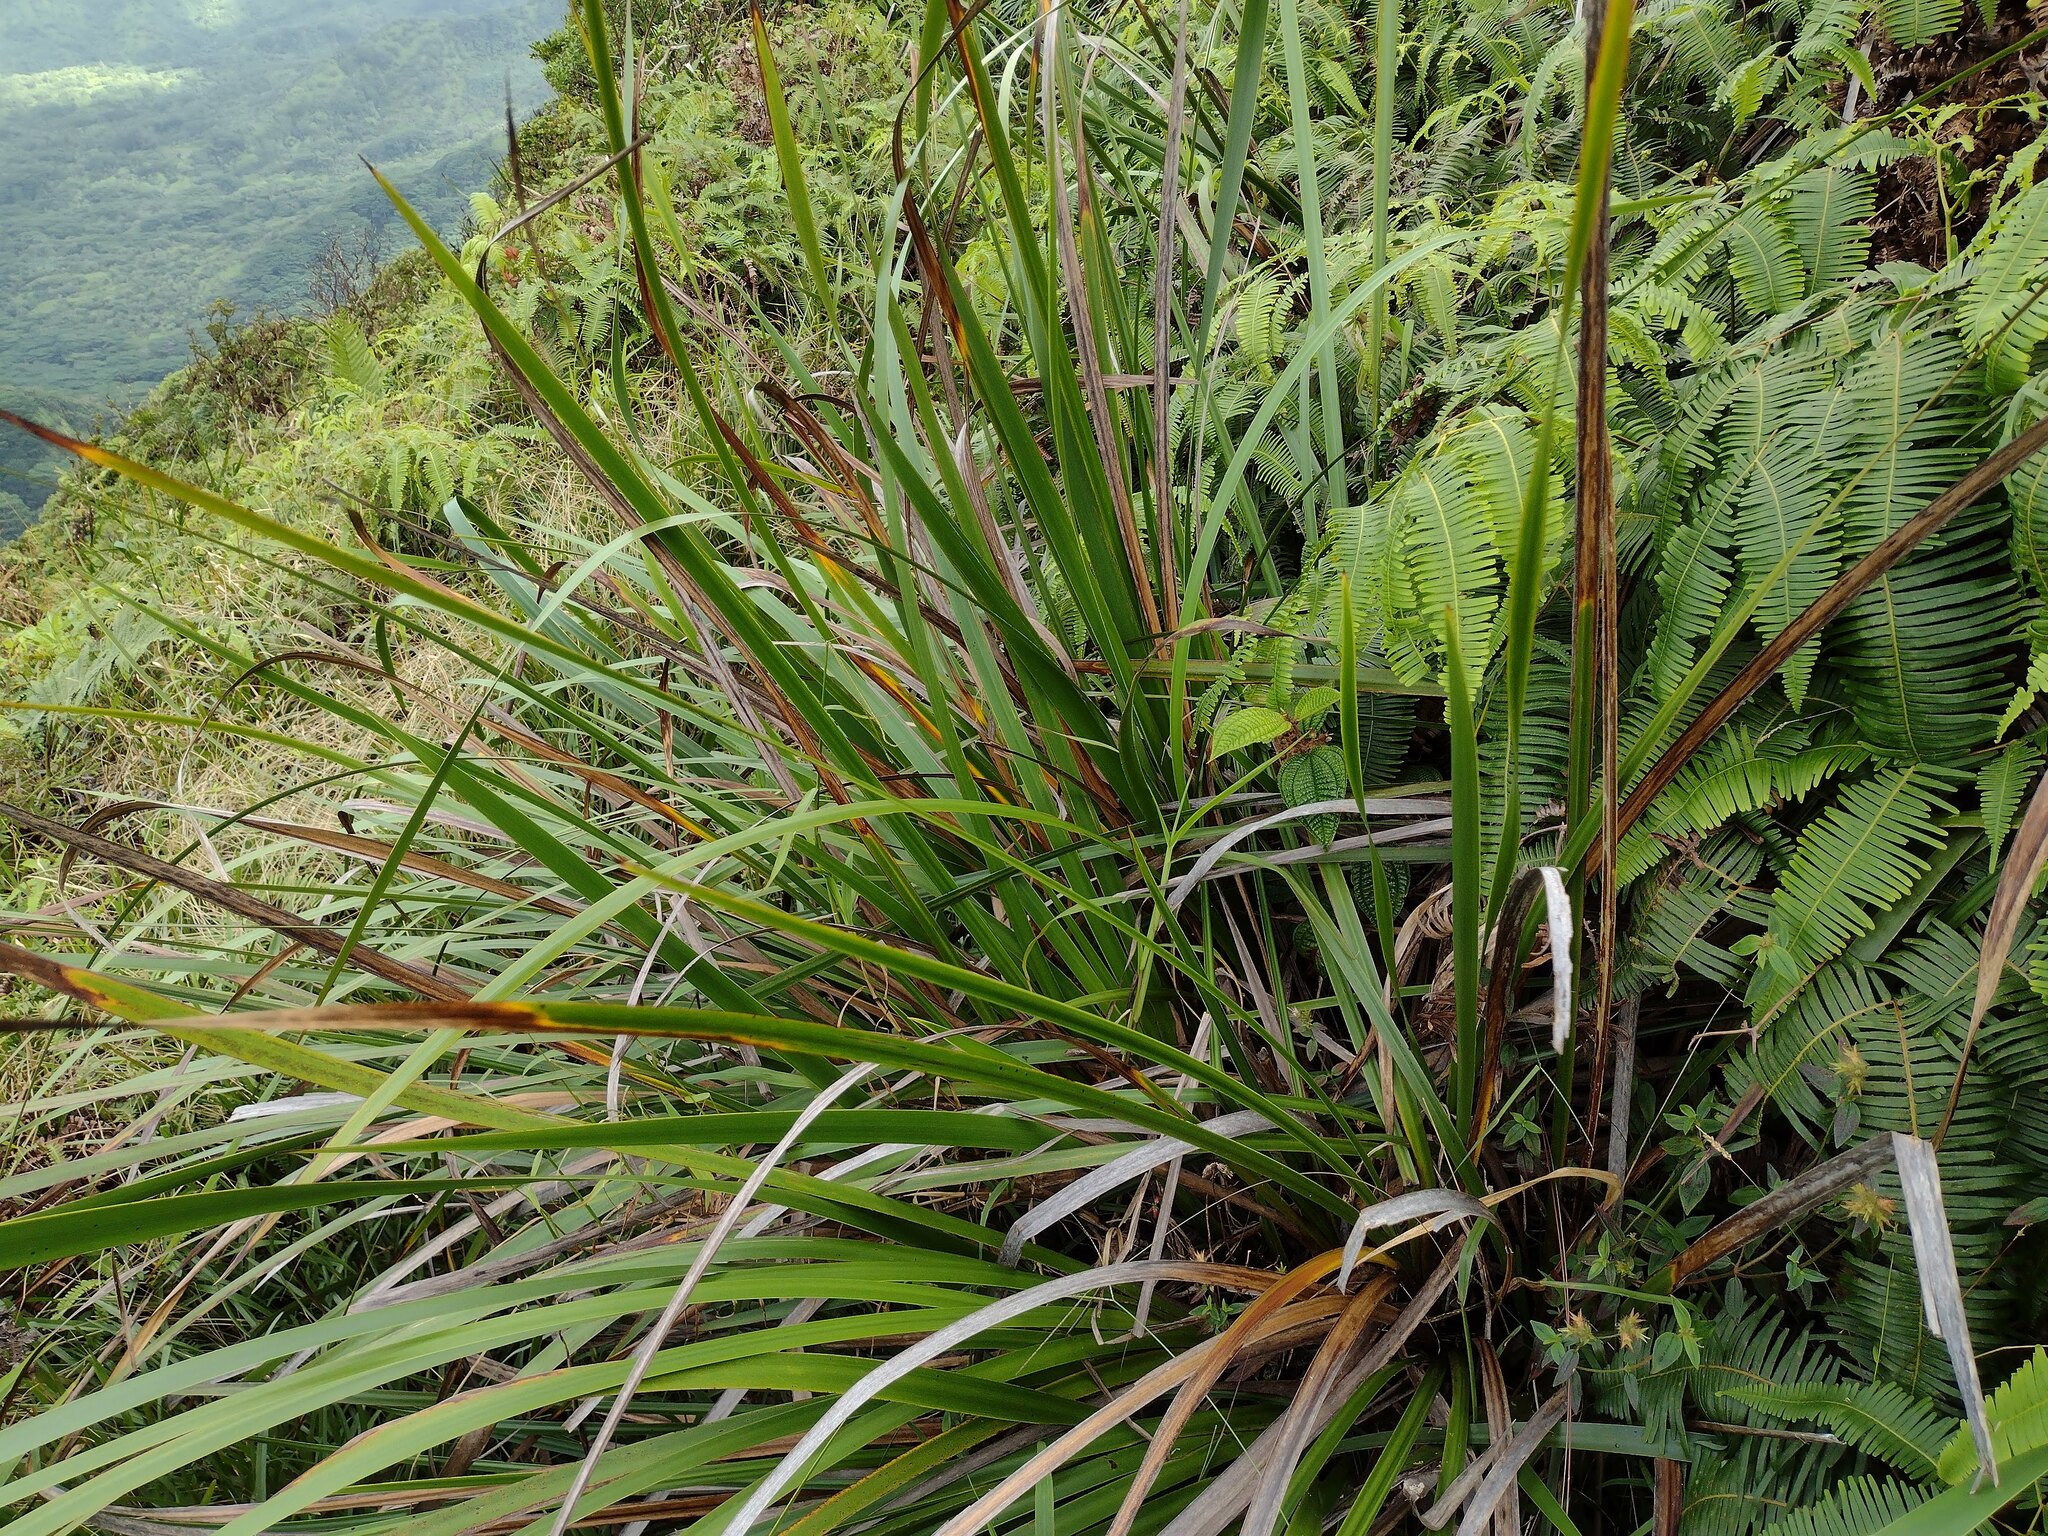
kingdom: Plantae
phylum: Tracheophyta
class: Liliopsida
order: Poales
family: Cyperaceae
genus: Machaerina
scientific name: Machaerina angustifolia
